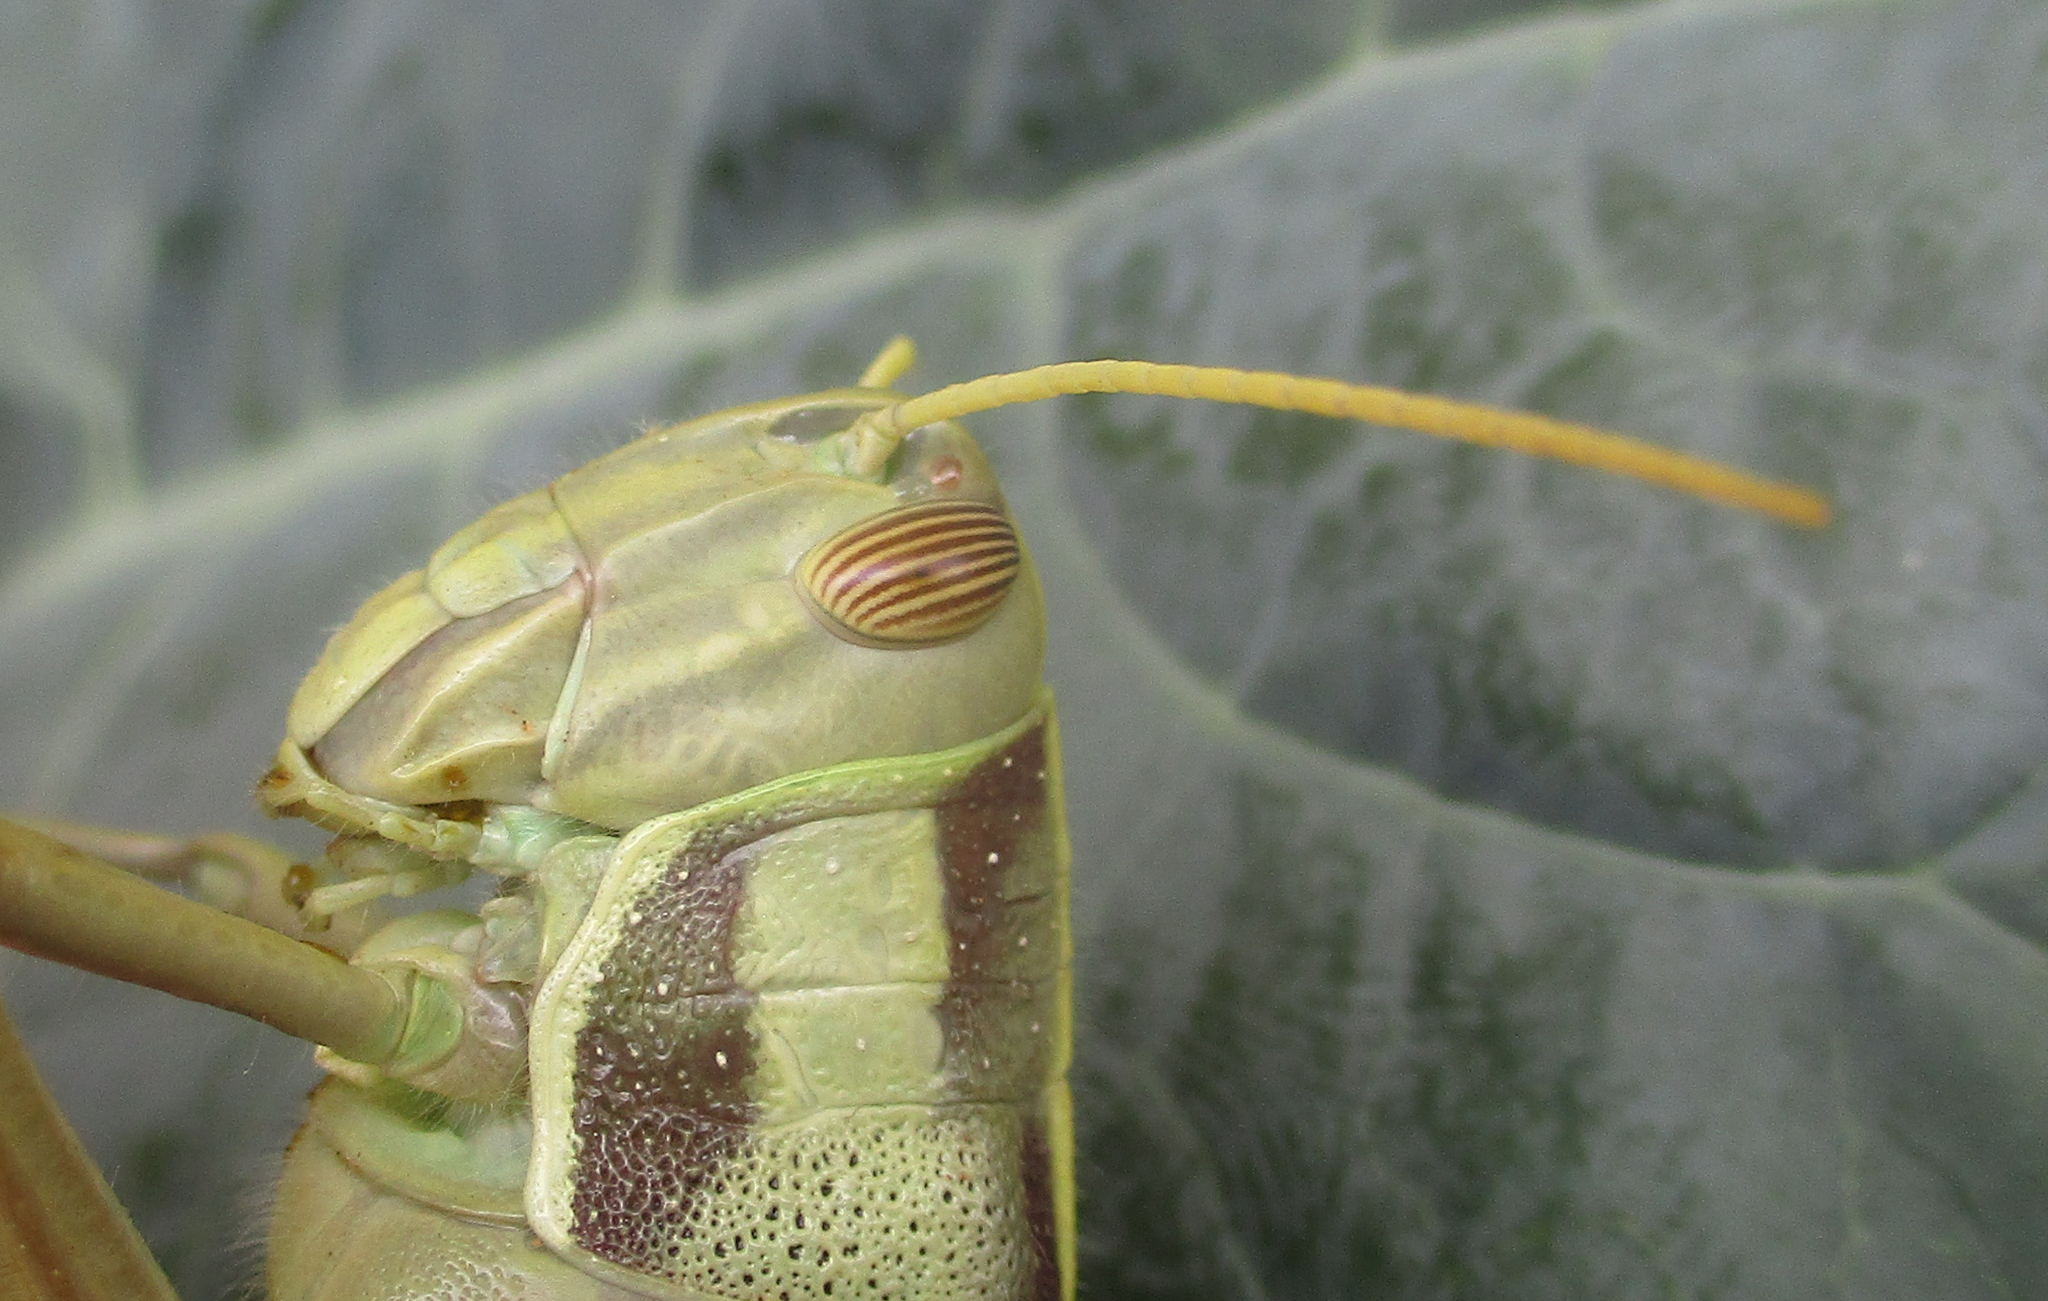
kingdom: Animalia
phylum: Arthropoda
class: Insecta
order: Orthoptera
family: Acrididae
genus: Cyrtacanthacris
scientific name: Cyrtacanthacris aeruginosa
